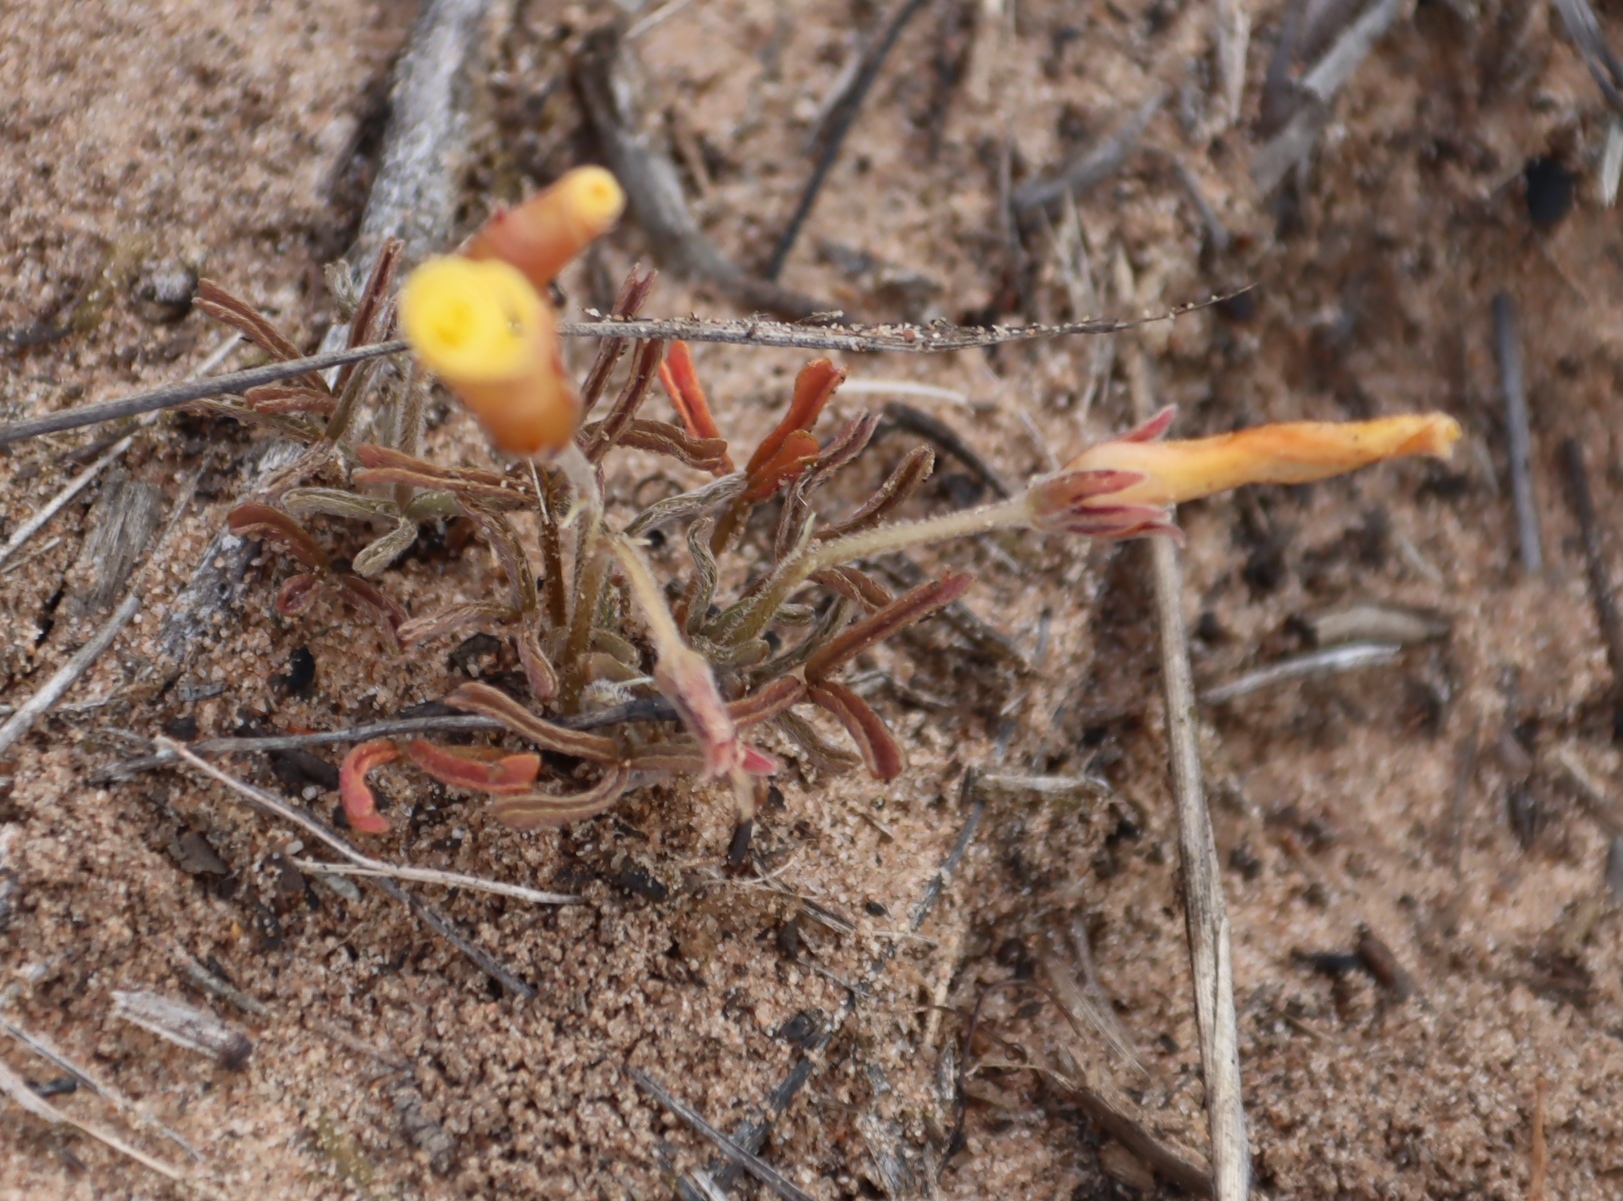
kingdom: Plantae
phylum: Tracheophyta
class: Magnoliopsida
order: Oxalidales
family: Oxalidaceae
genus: Oxalis
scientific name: Oxalis obtusa
